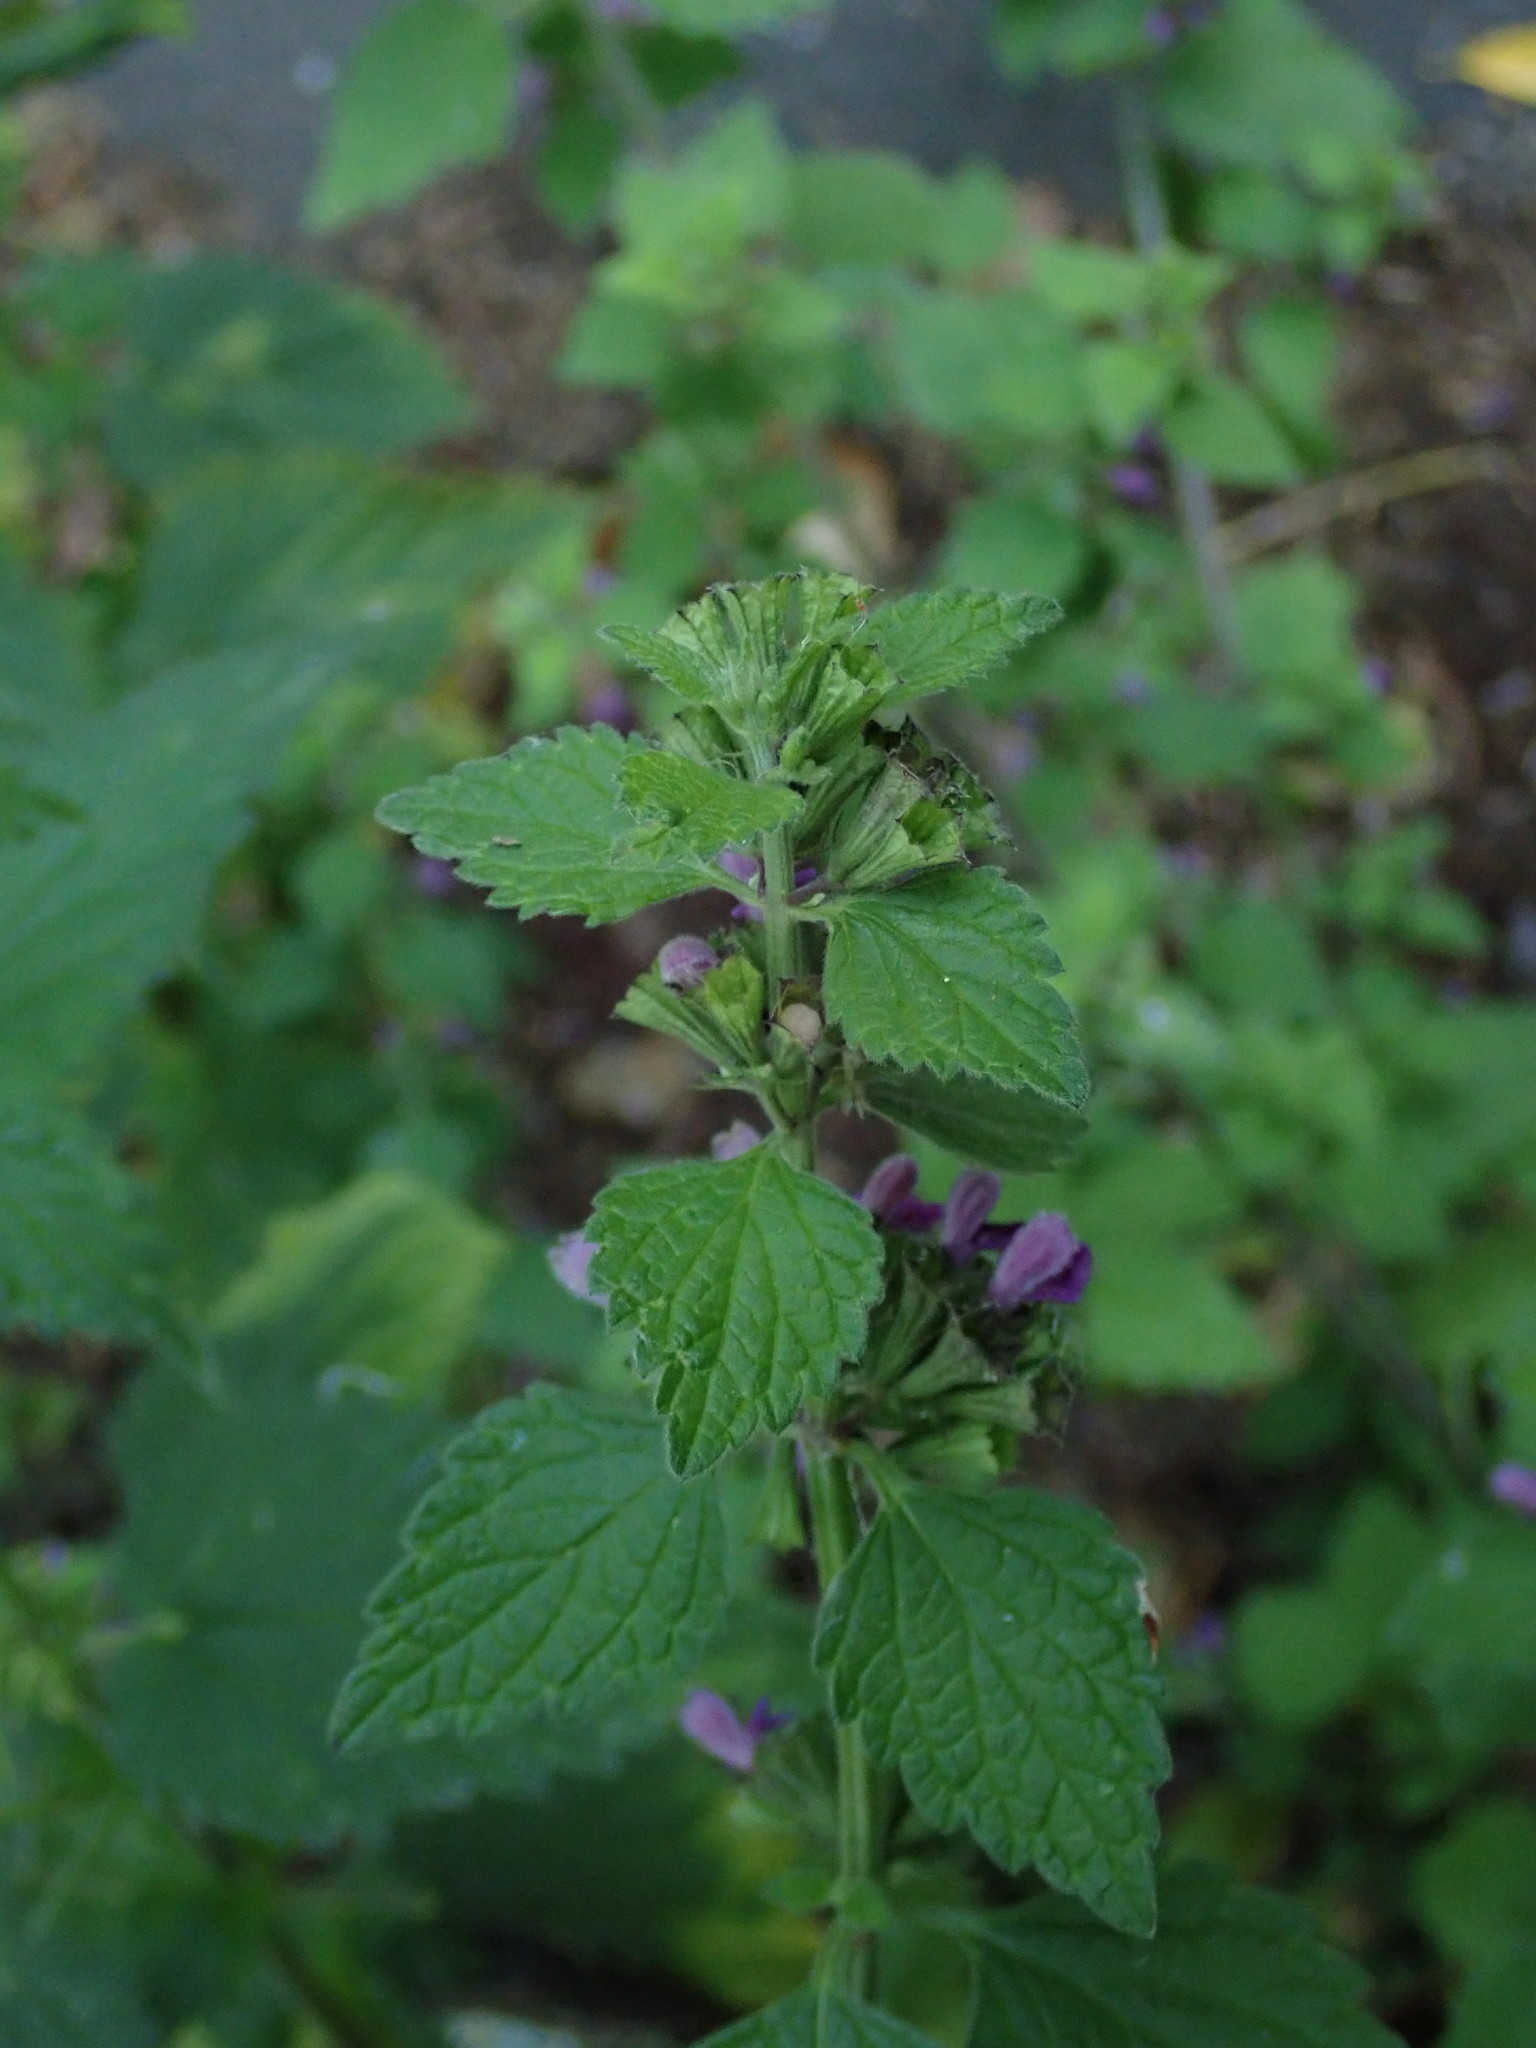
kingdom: Plantae
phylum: Tracheophyta
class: Magnoliopsida
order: Lamiales
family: Lamiaceae
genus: Ballota
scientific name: Ballota nigra
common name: Black horehound
